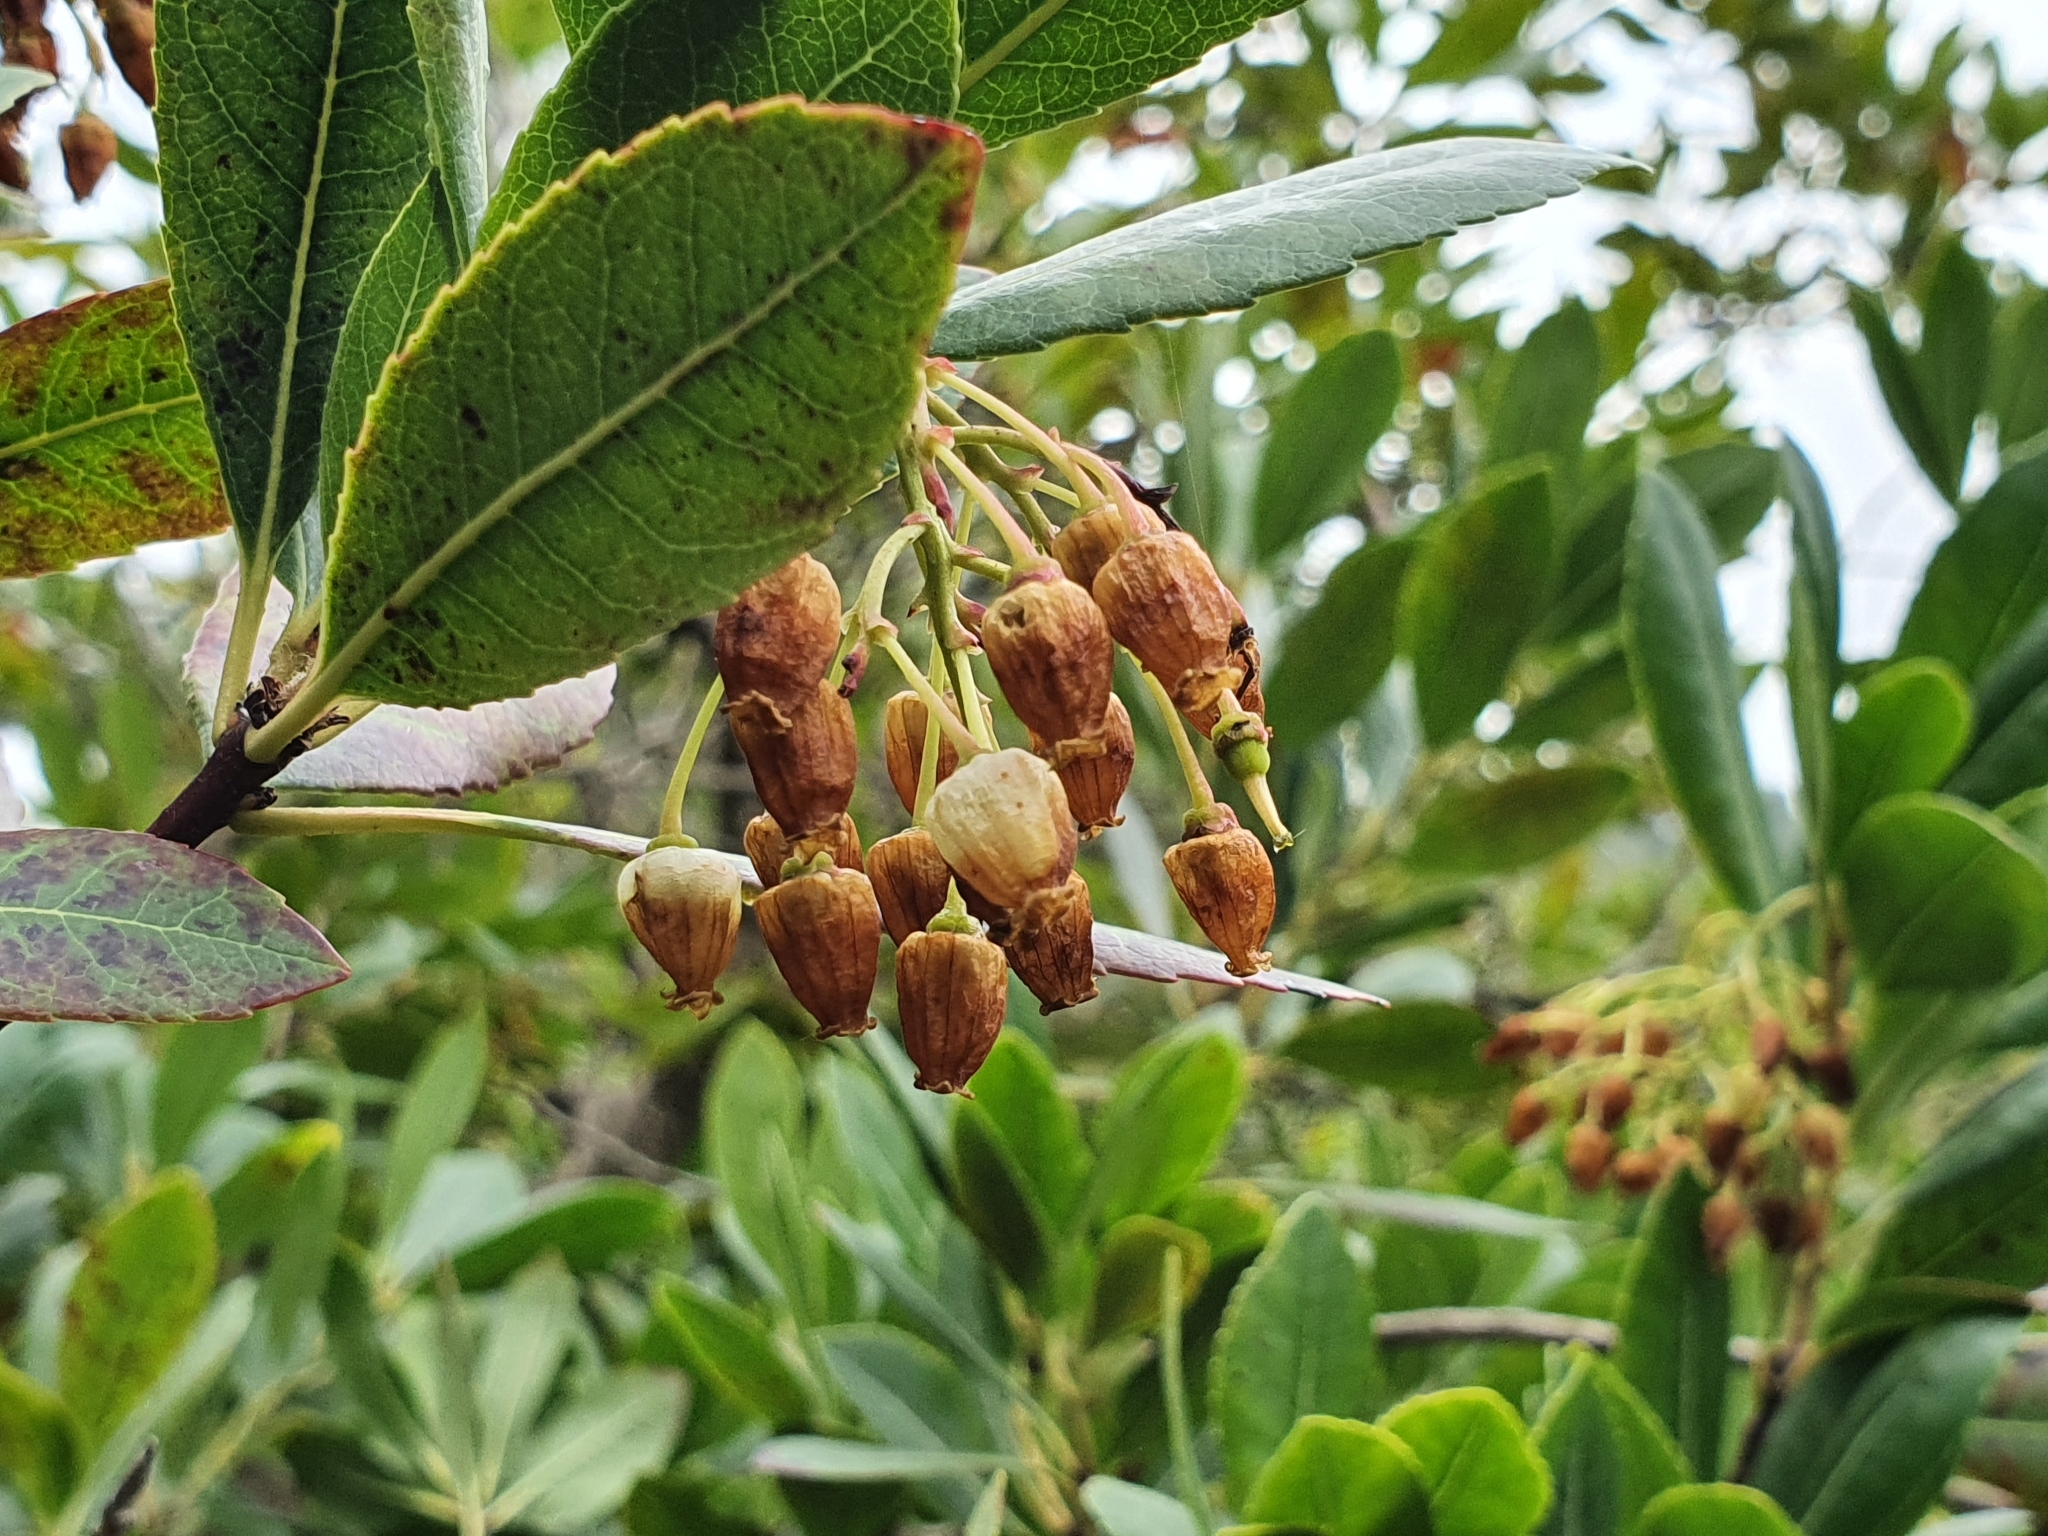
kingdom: Plantae
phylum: Tracheophyta
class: Magnoliopsida
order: Ericales
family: Ericaceae
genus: Arbutus
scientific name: Arbutus unedo
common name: Strawberry-tree
